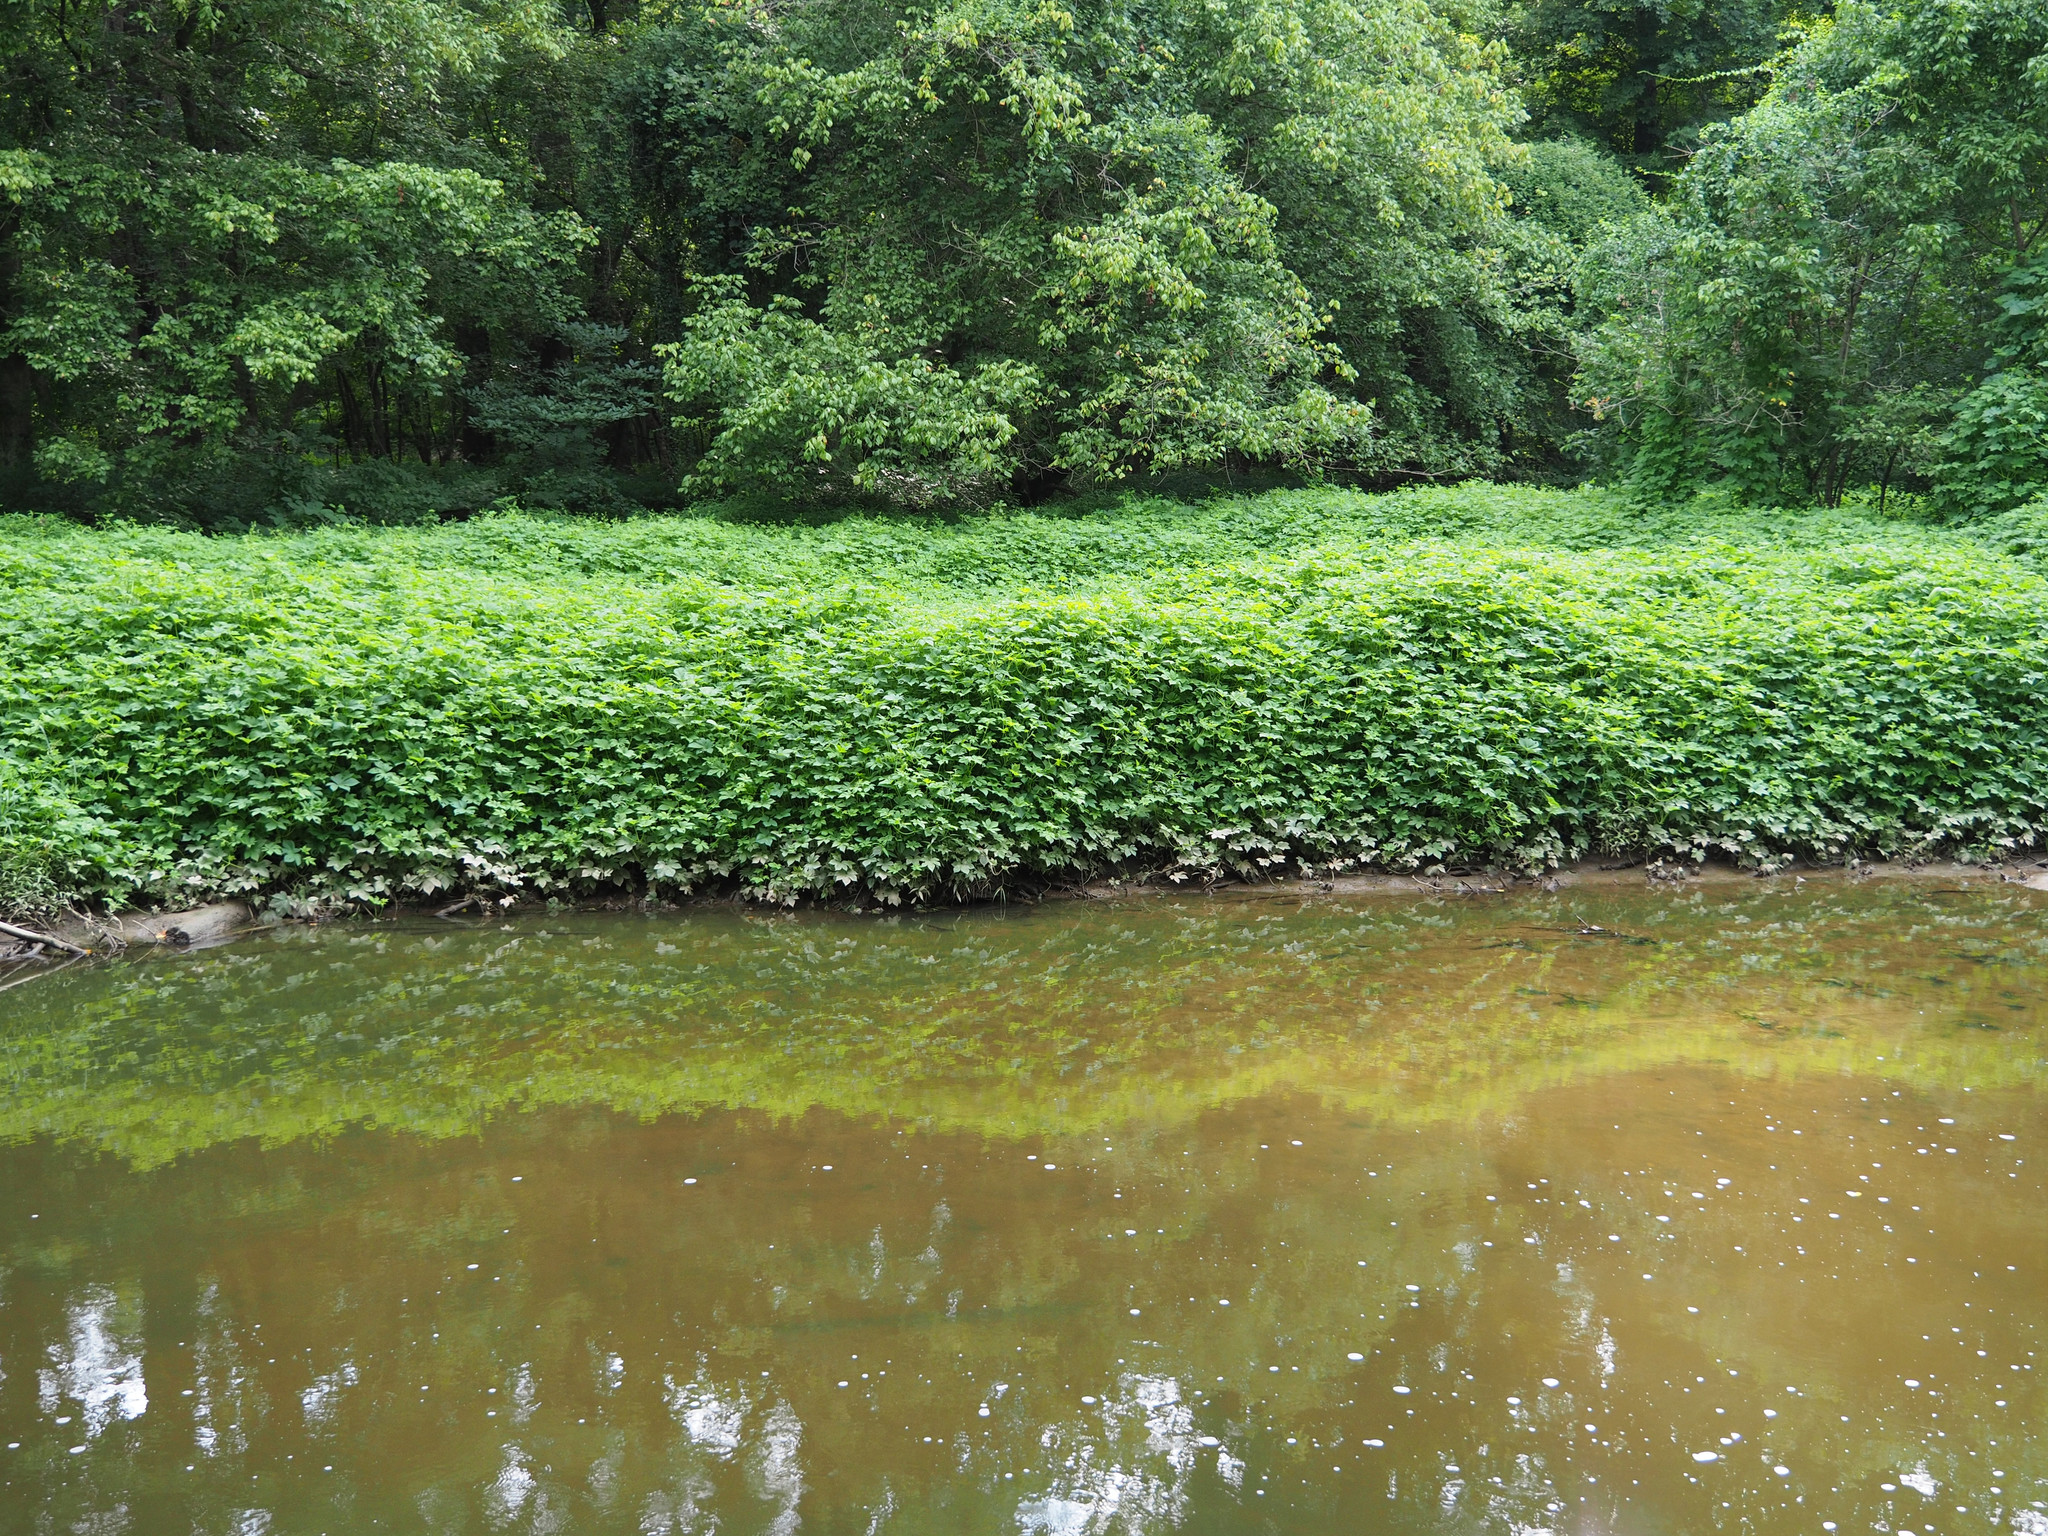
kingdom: Plantae
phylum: Tracheophyta
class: Magnoliopsida
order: Rosales
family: Cannabaceae
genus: Humulus
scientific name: Humulus scandens
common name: Japanese hop
